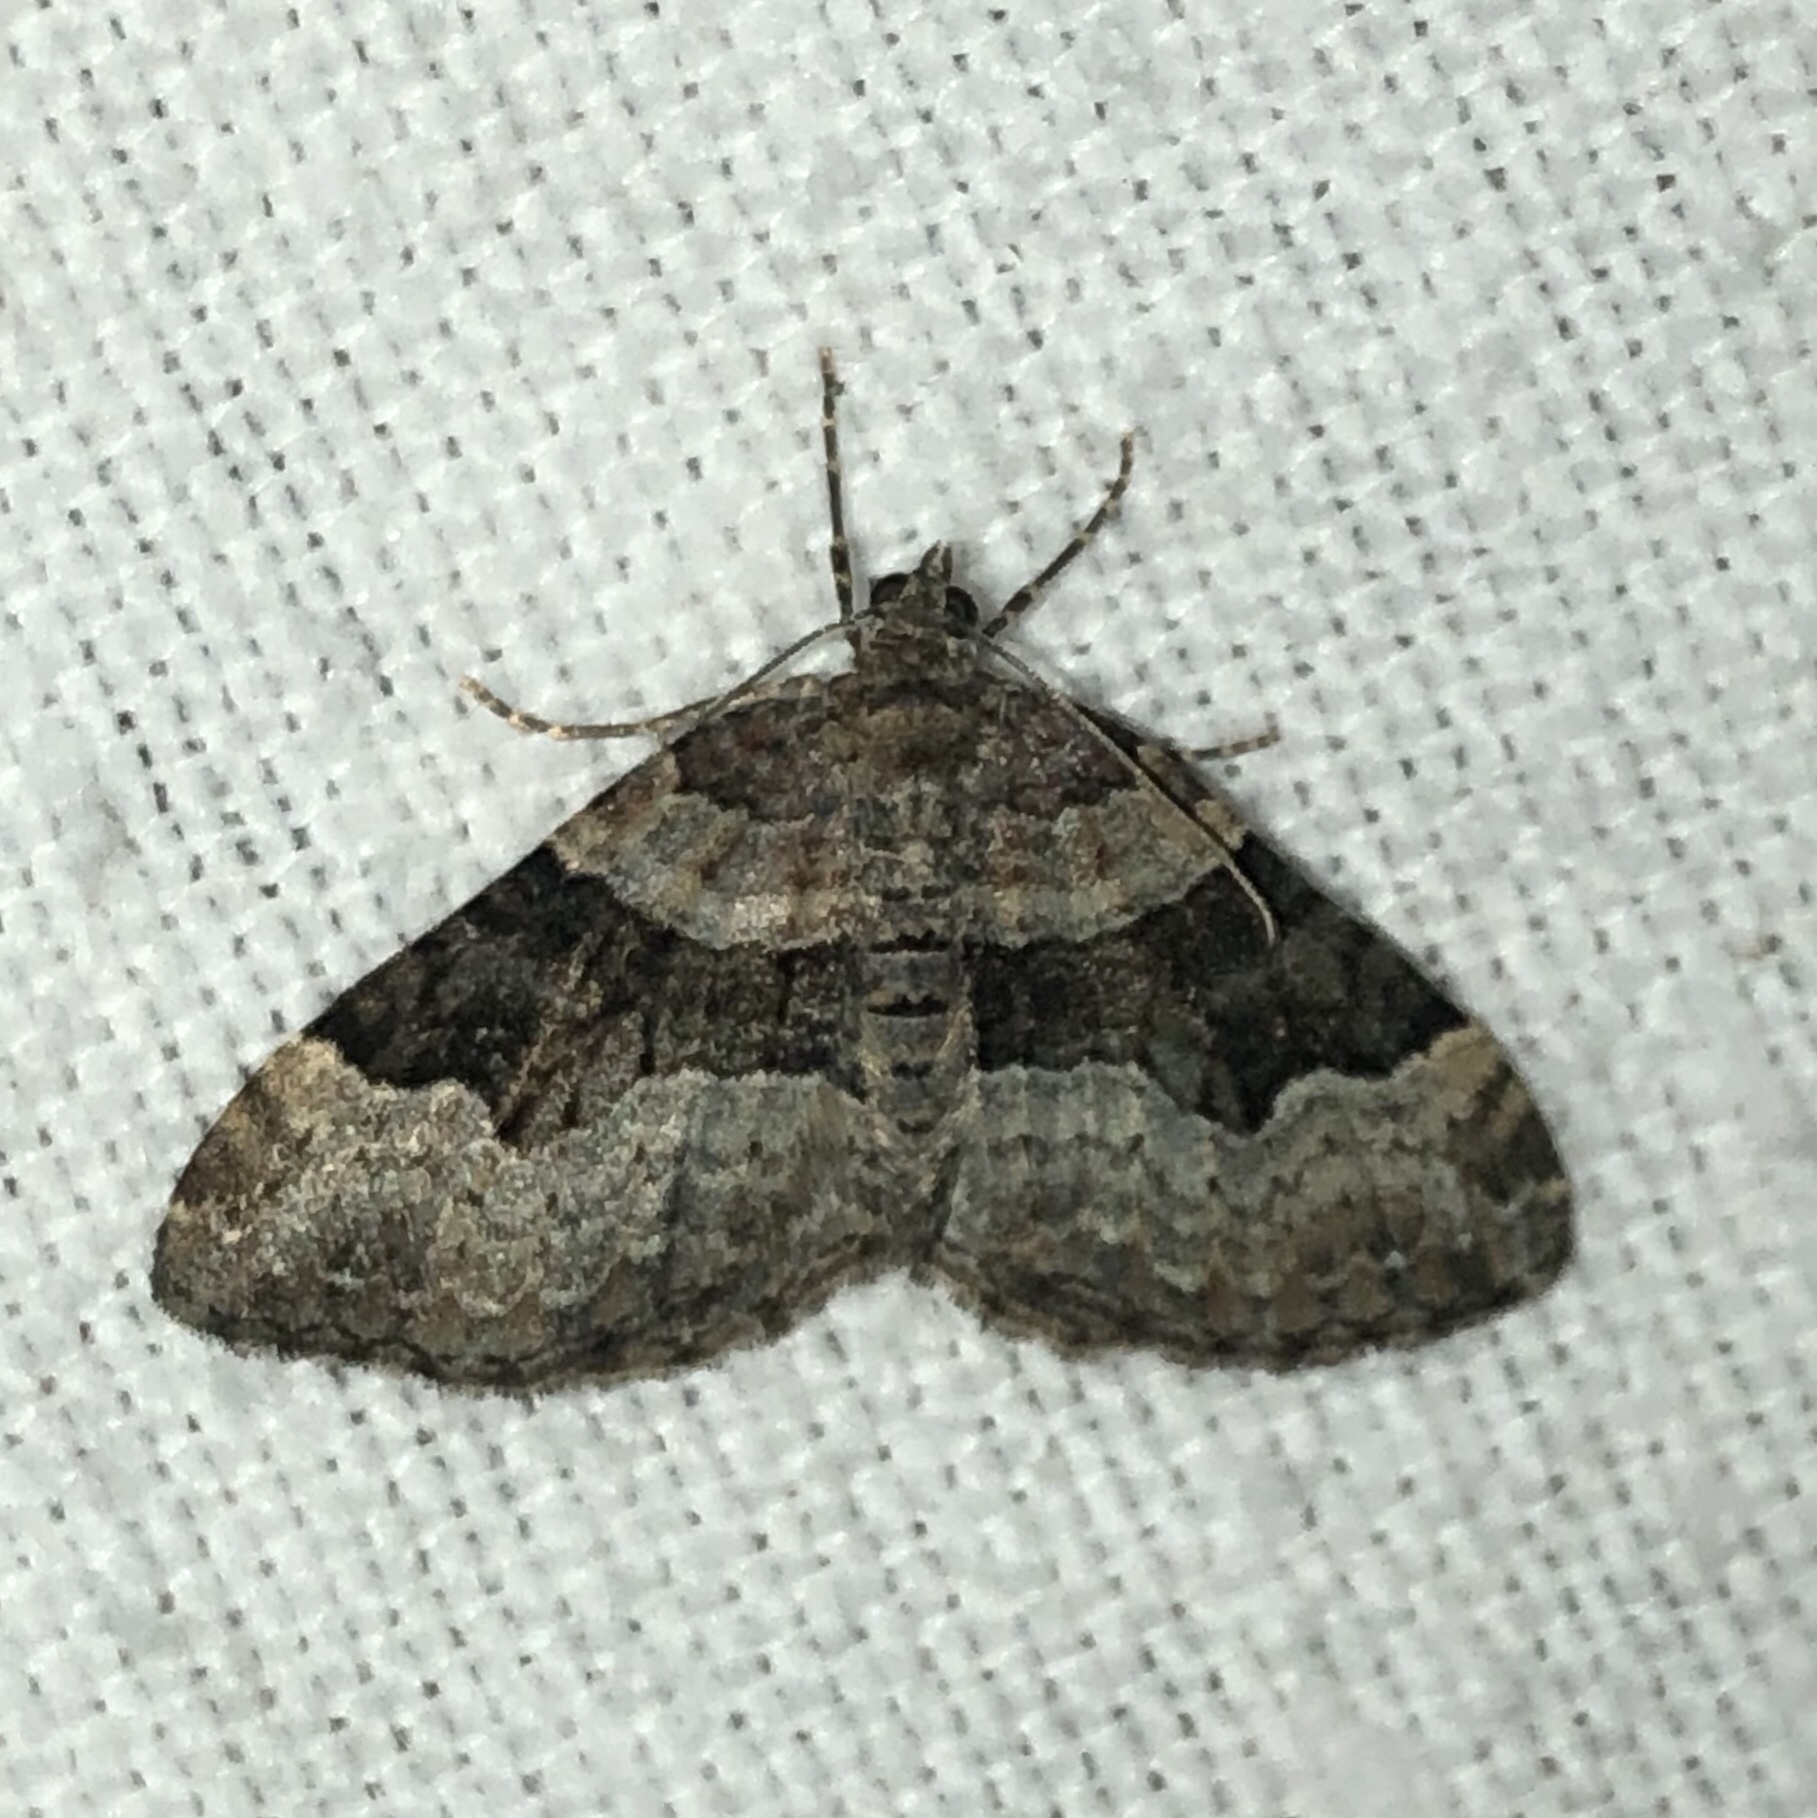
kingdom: Animalia
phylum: Arthropoda
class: Insecta
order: Lepidoptera
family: Geometridae
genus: Xanthorhoe
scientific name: Xanthorhoe lacustrata
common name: Toothed brown carpet
